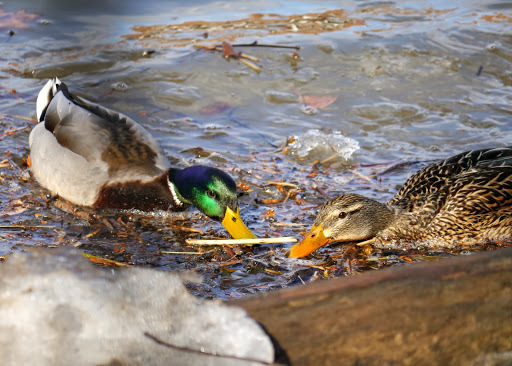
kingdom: Animalia
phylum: Chordata
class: Aves
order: Anseriformes
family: Anatidae
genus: Anas
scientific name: Anas platyrhynchos
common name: Mallard
